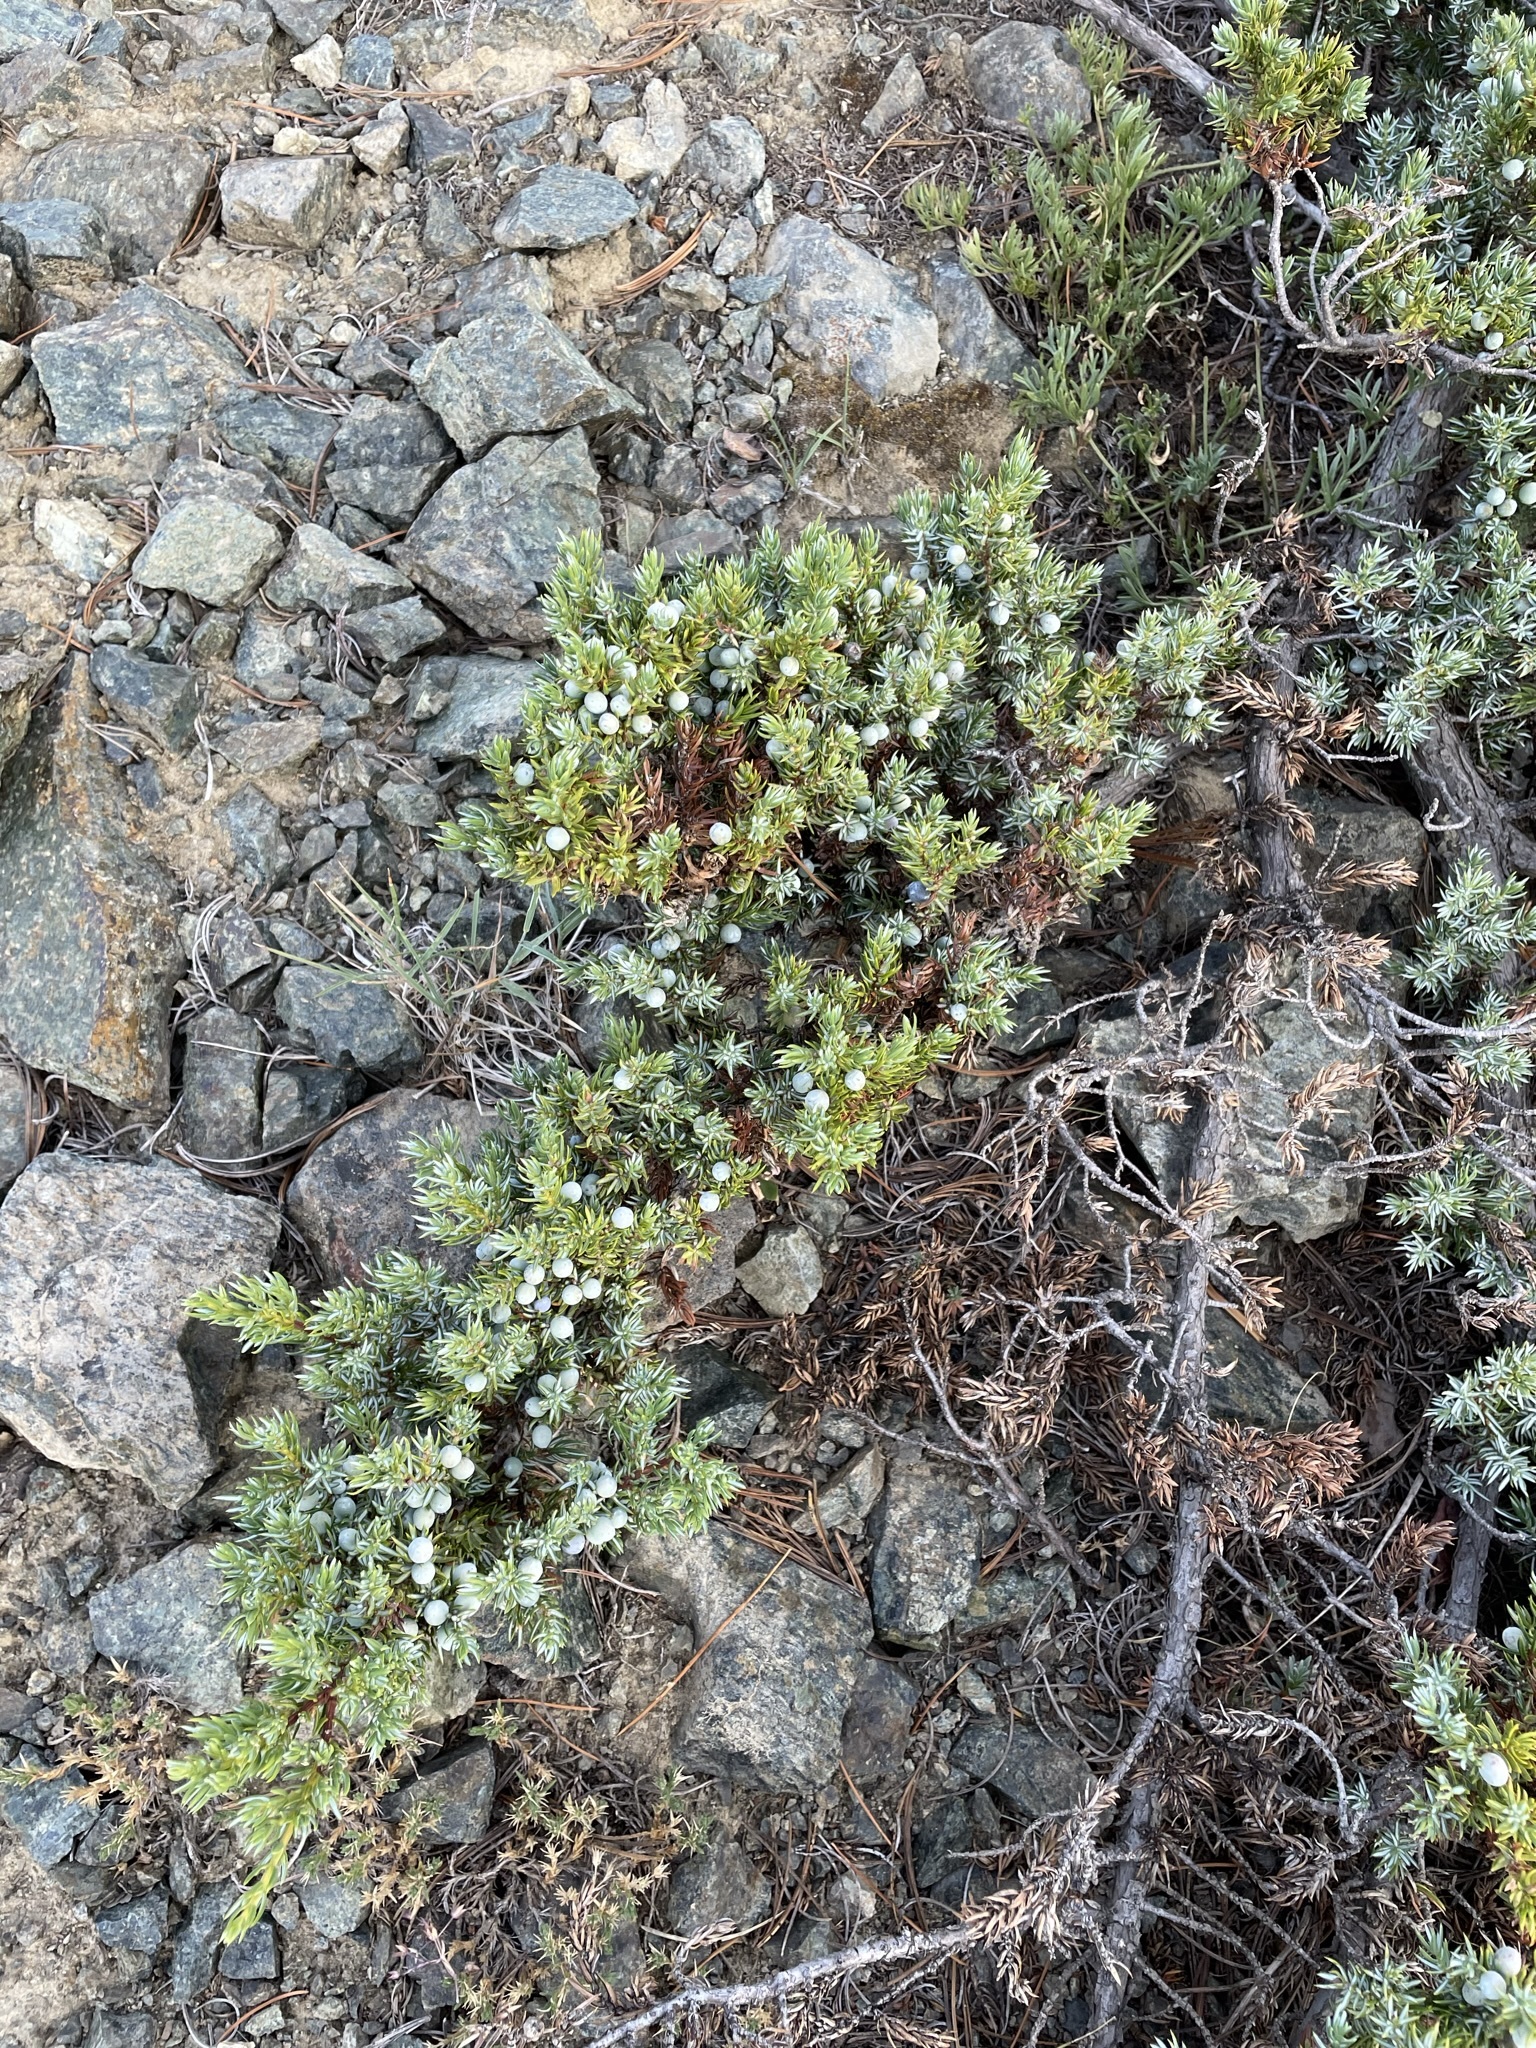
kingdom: Plantae
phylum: Tracheophyta
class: Pinopsida
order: Pinales
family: Cupressaceae
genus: Juniperus
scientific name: Juniperus communis
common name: Common juniper
